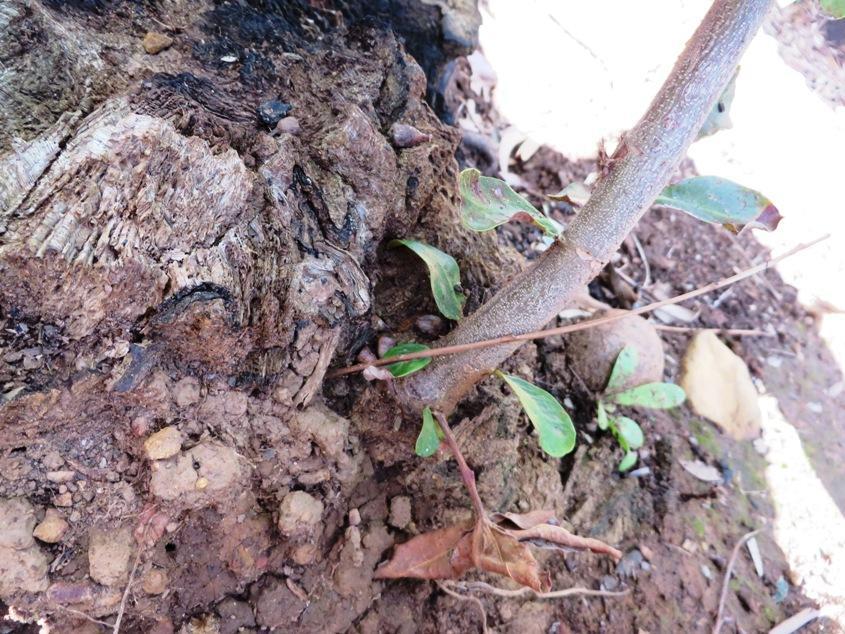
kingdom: Plantae
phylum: Tracheophyta
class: Magnoliopsida
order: Proteales
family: Proteaceae
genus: Brabejum
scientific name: Brabejum stellatifolium
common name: Wild almond
